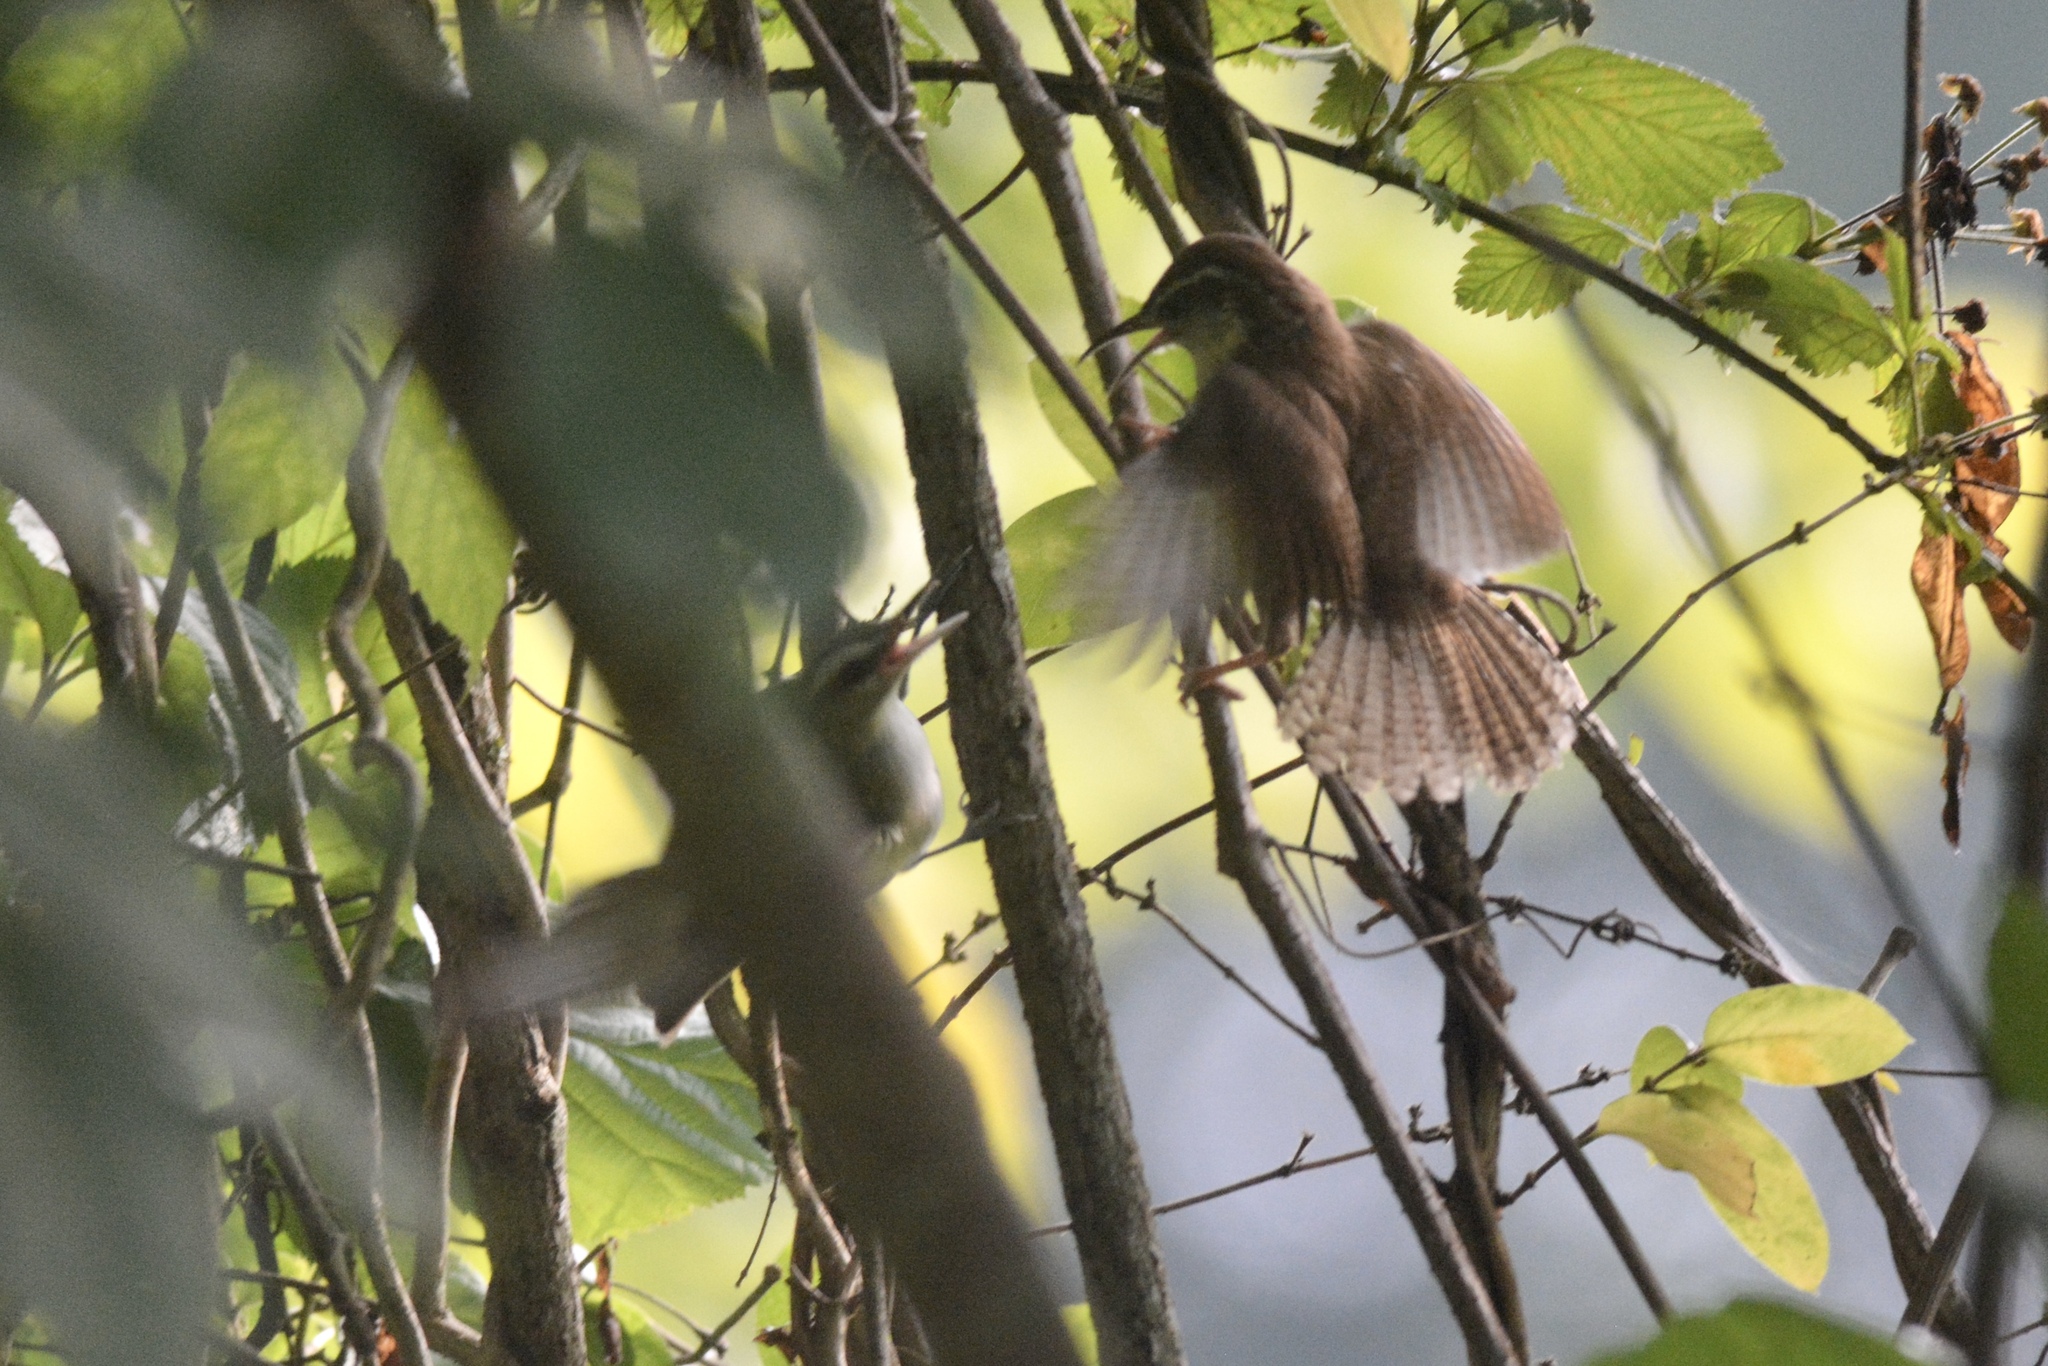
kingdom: Animalia
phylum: Chordata
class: Aves
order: Passeriformes
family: Troglodytidae
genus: Thryothorus
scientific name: Thryothorus ludovicianus
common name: Carolina wren
